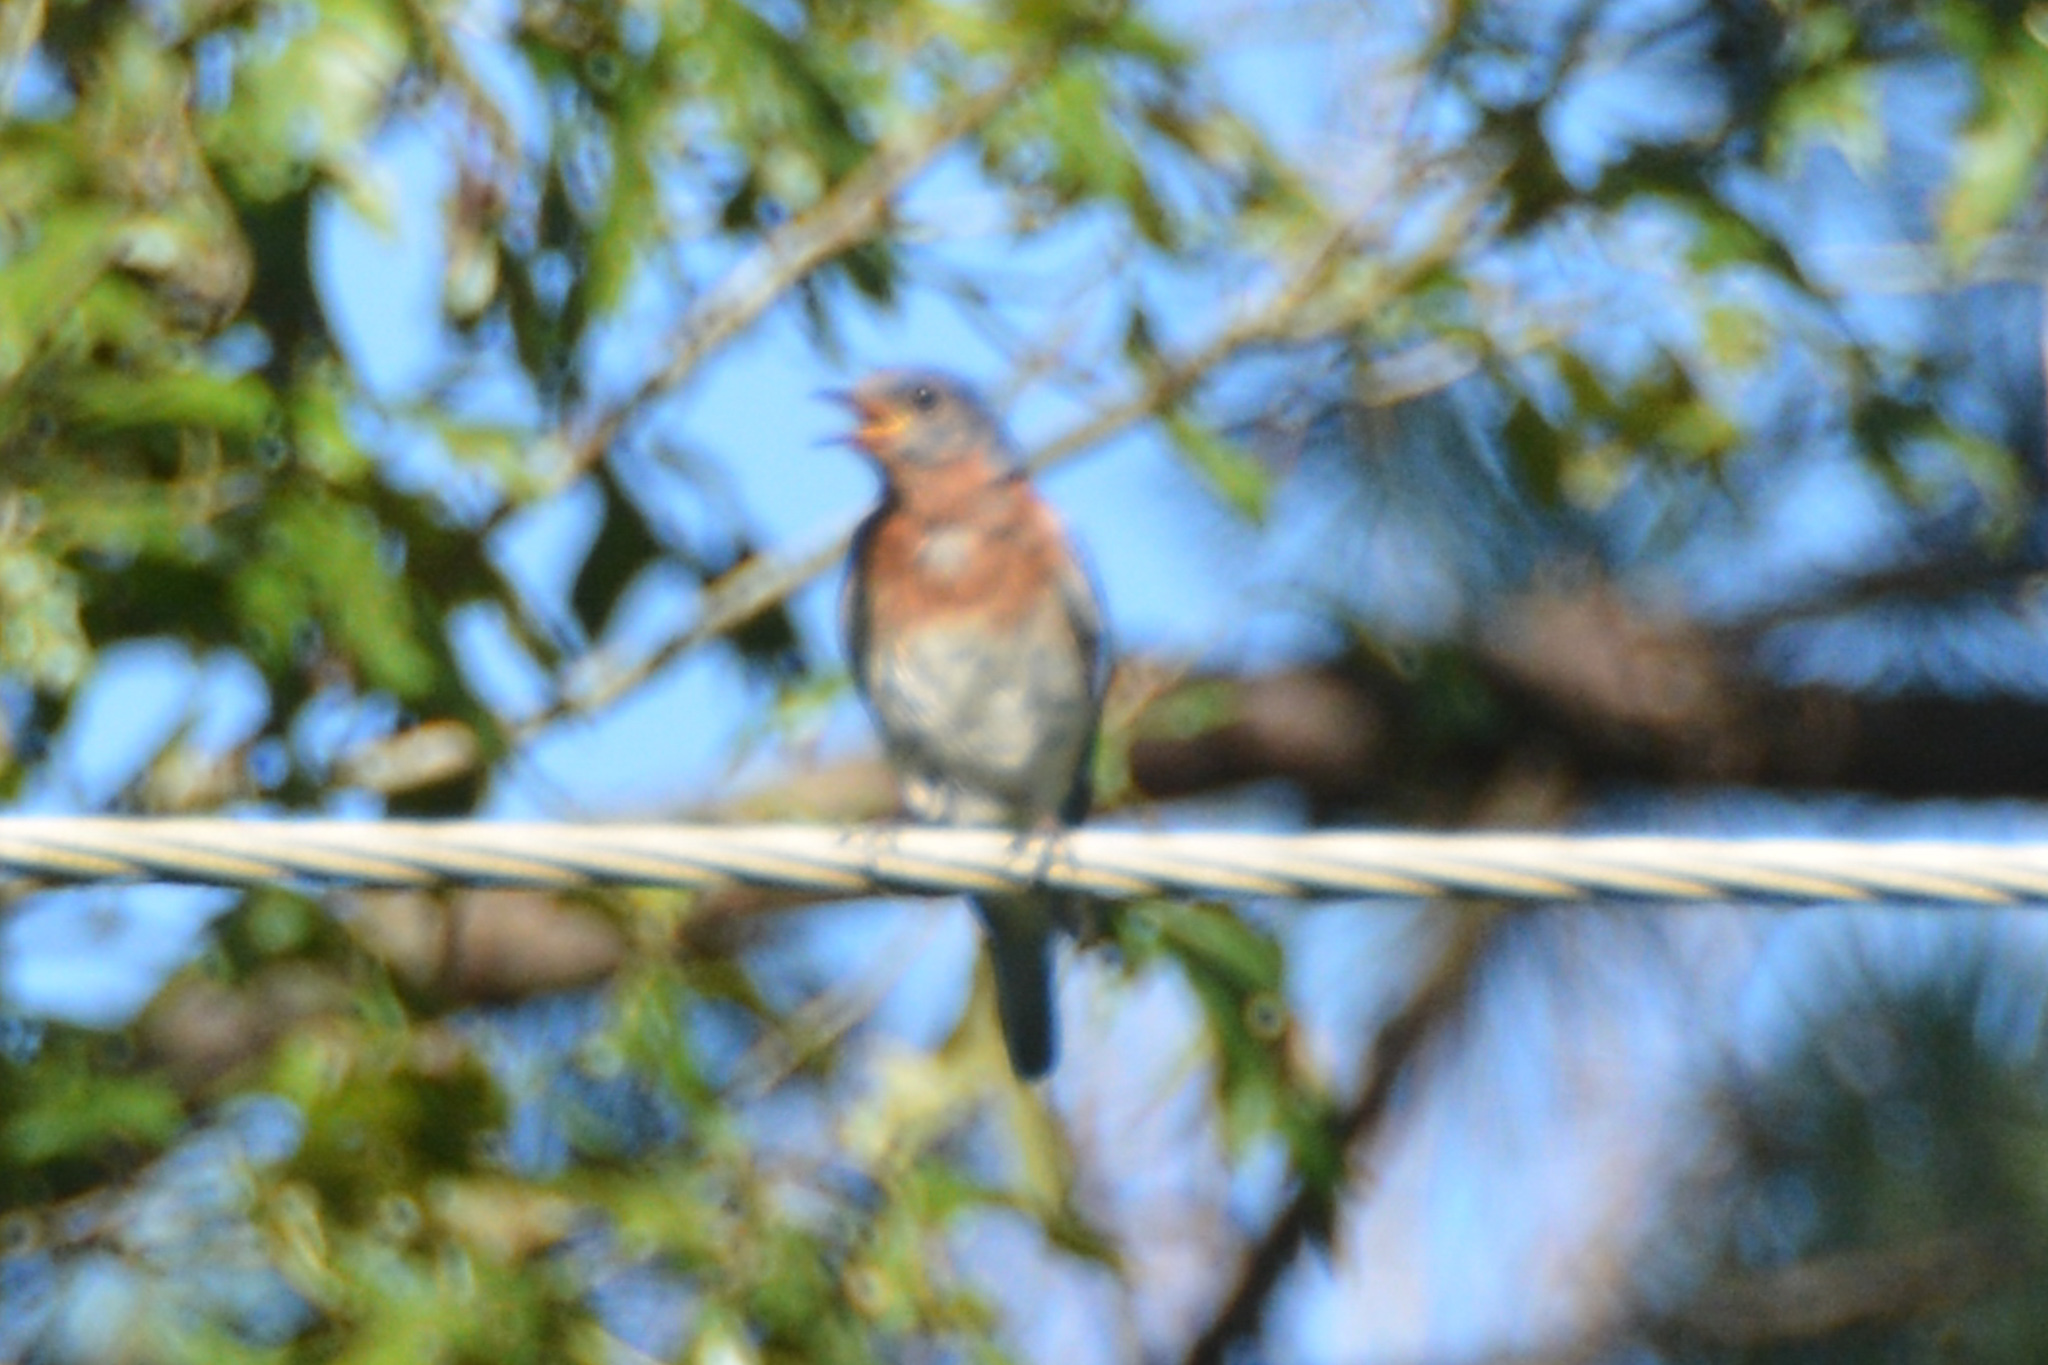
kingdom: Animalia
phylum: Chordata
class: Aves
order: Passeriformes
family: Turdidae
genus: Sialia
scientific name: Sialia sialis
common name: Eastern bluebird
